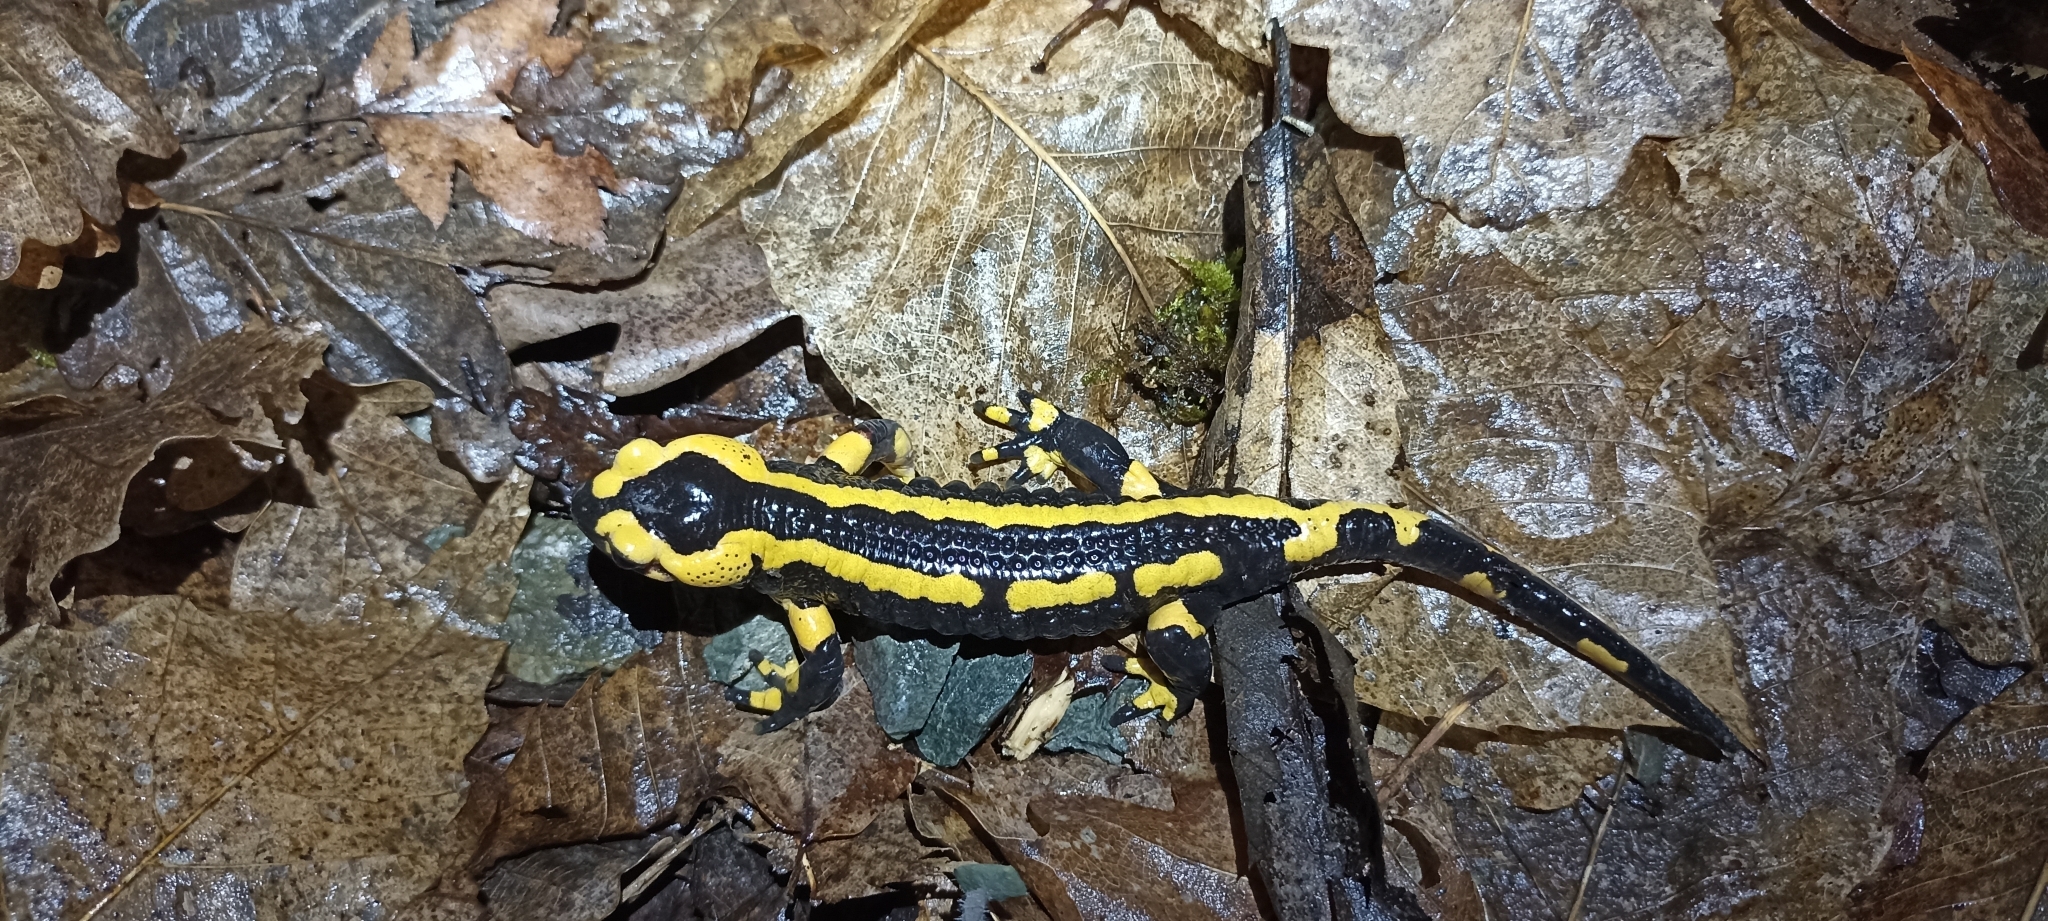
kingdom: Animalia
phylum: Chordata
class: Amphibia
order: Caudata
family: Salamandridae
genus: Salamandra
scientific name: Salamandra salamandra
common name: Fire salamander
